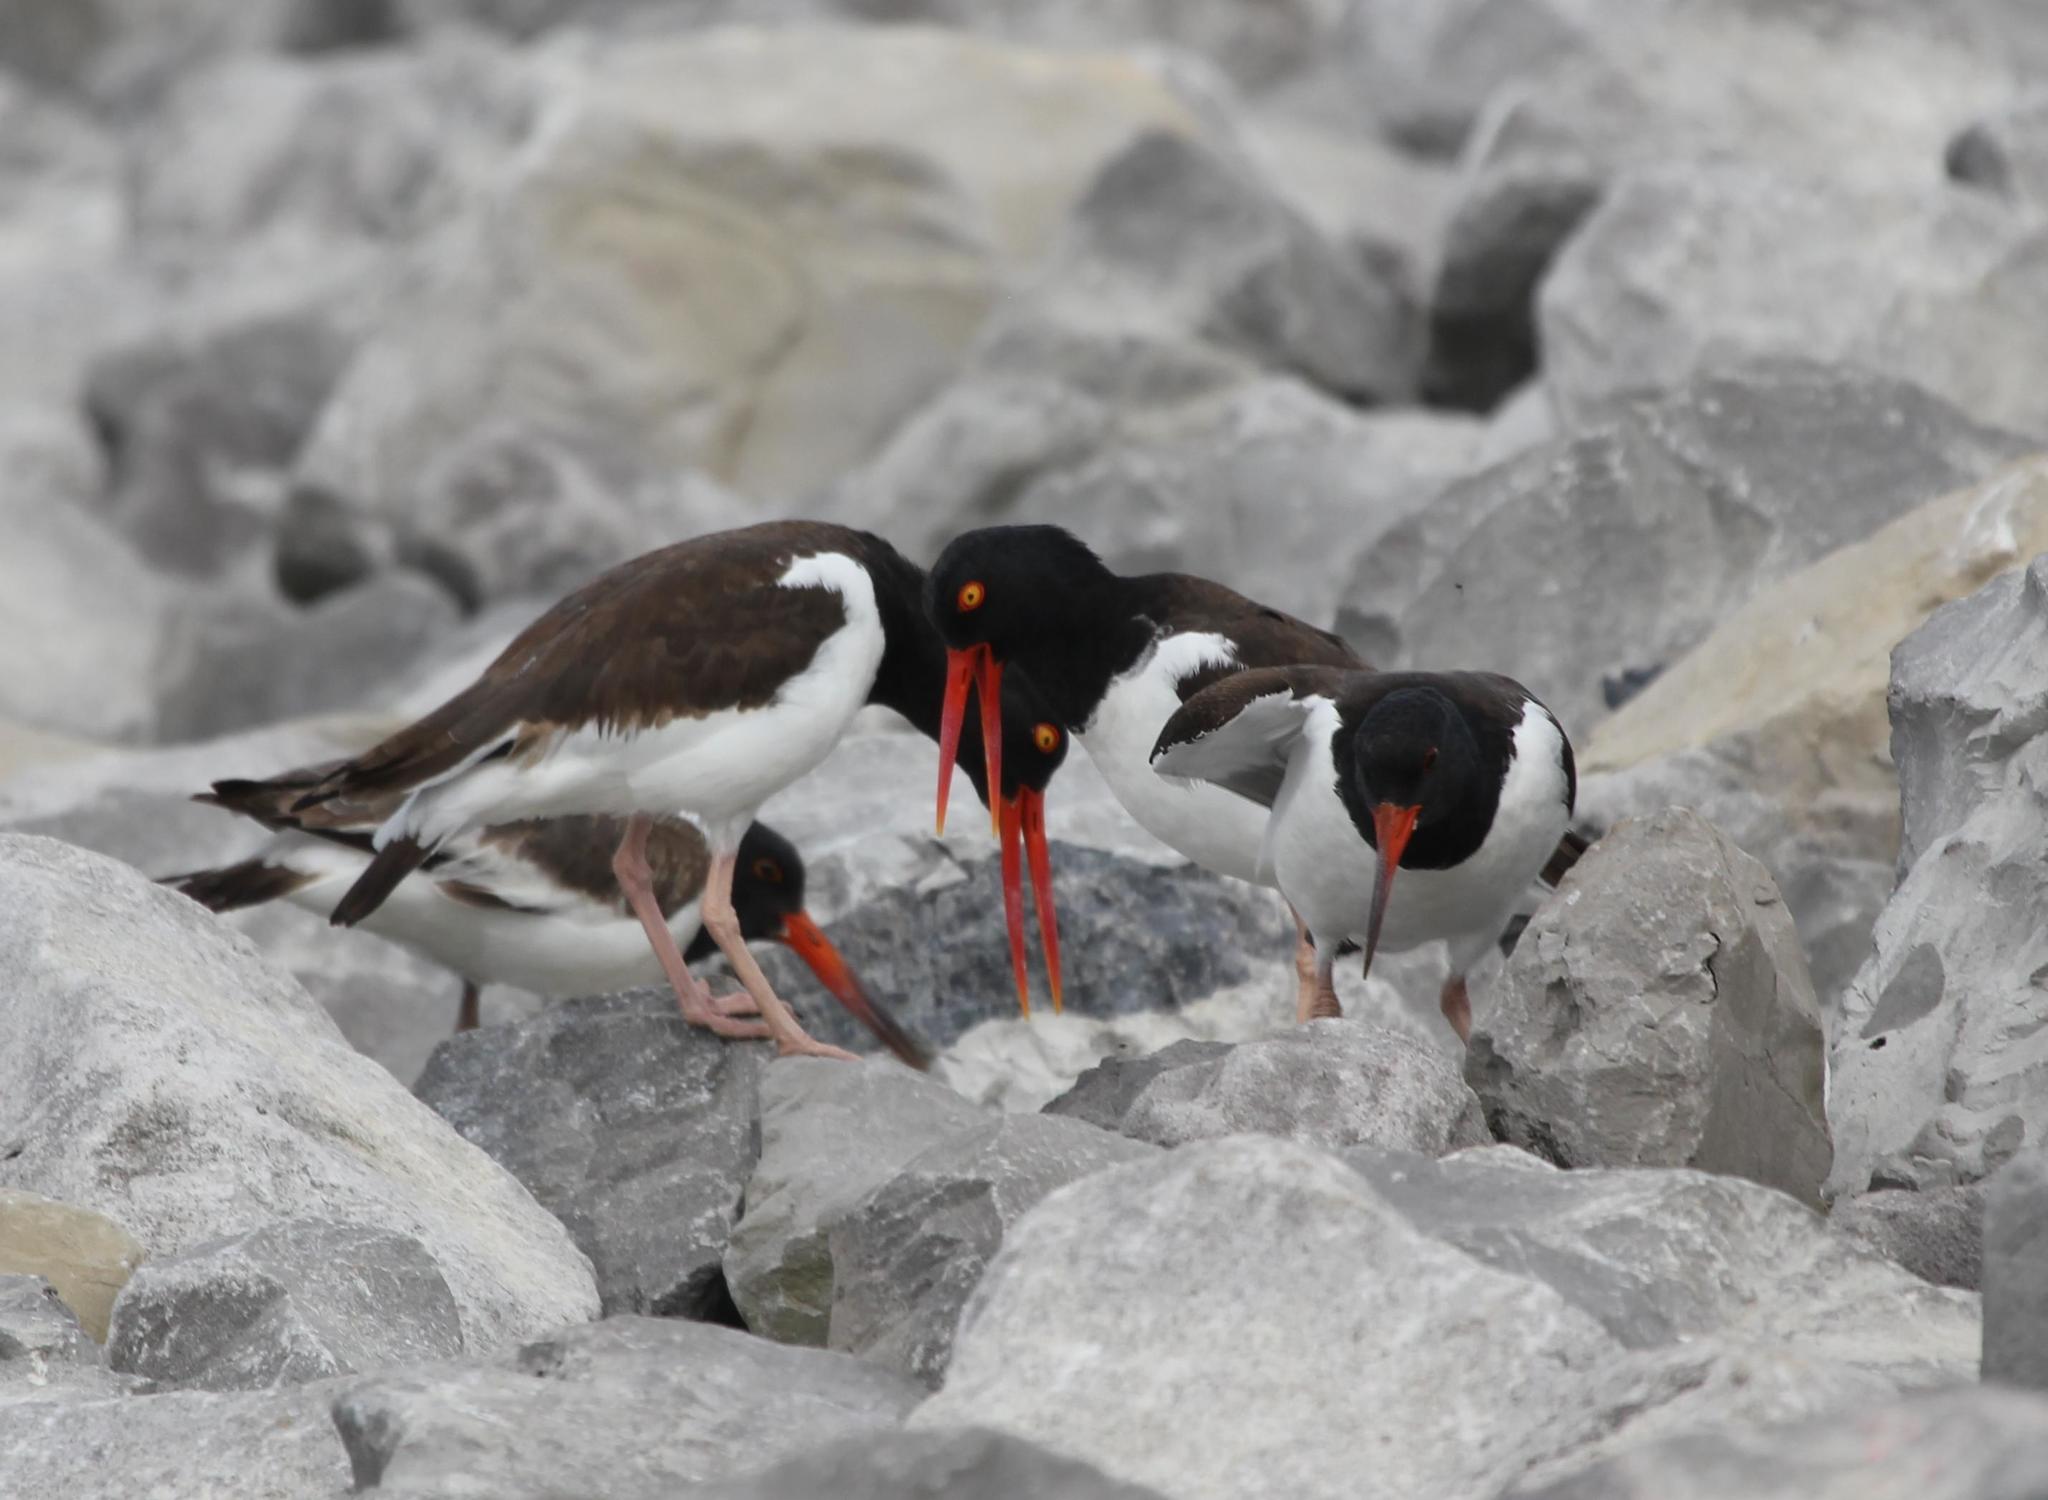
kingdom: Animalia
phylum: Chordata
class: Aves
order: Charadriiformes
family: Haematopodidae
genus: Haematopus
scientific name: Haematopus palliatus
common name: American oystercatcher
